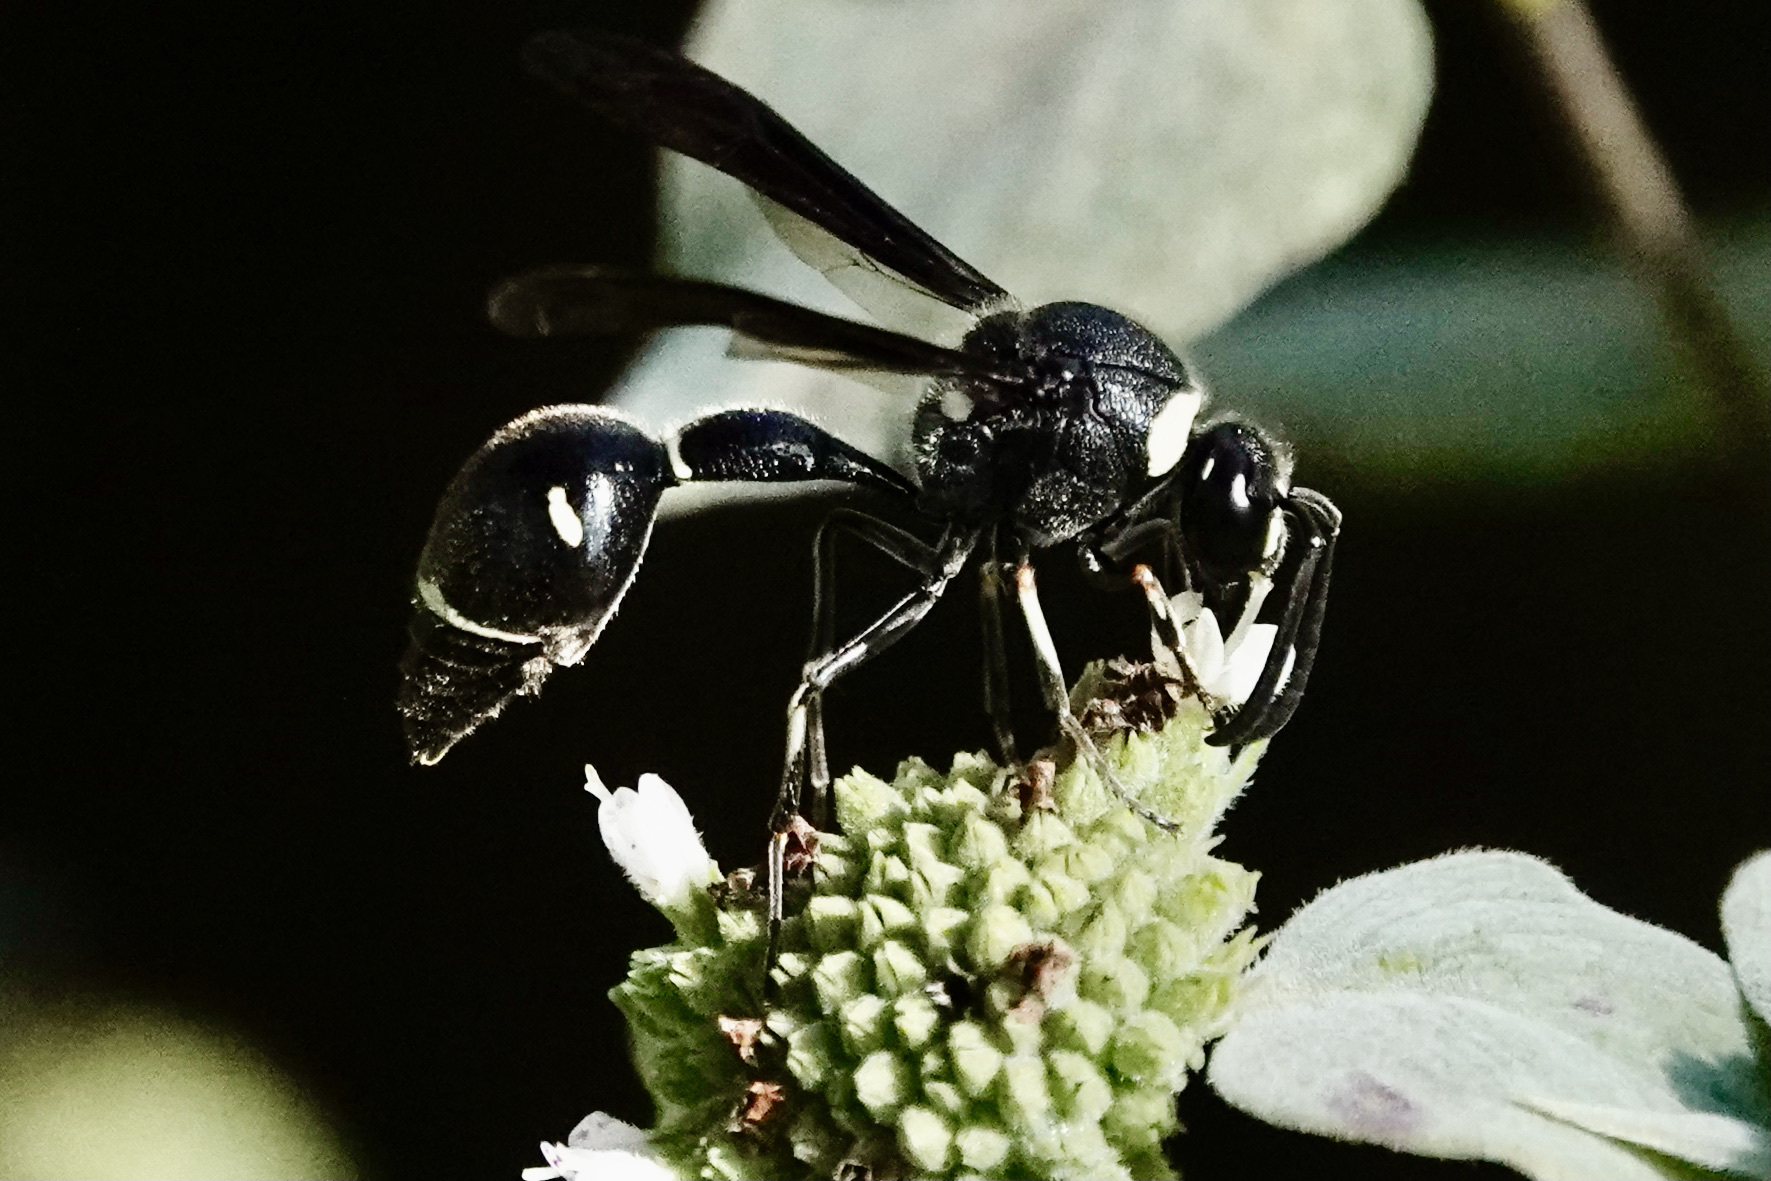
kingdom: Animalia
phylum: Arthropoda
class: Insecta
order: Hymenoptera
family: Vespidae
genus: Eumenes
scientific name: Eumenes fraternus
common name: Fraternal potter wasp
